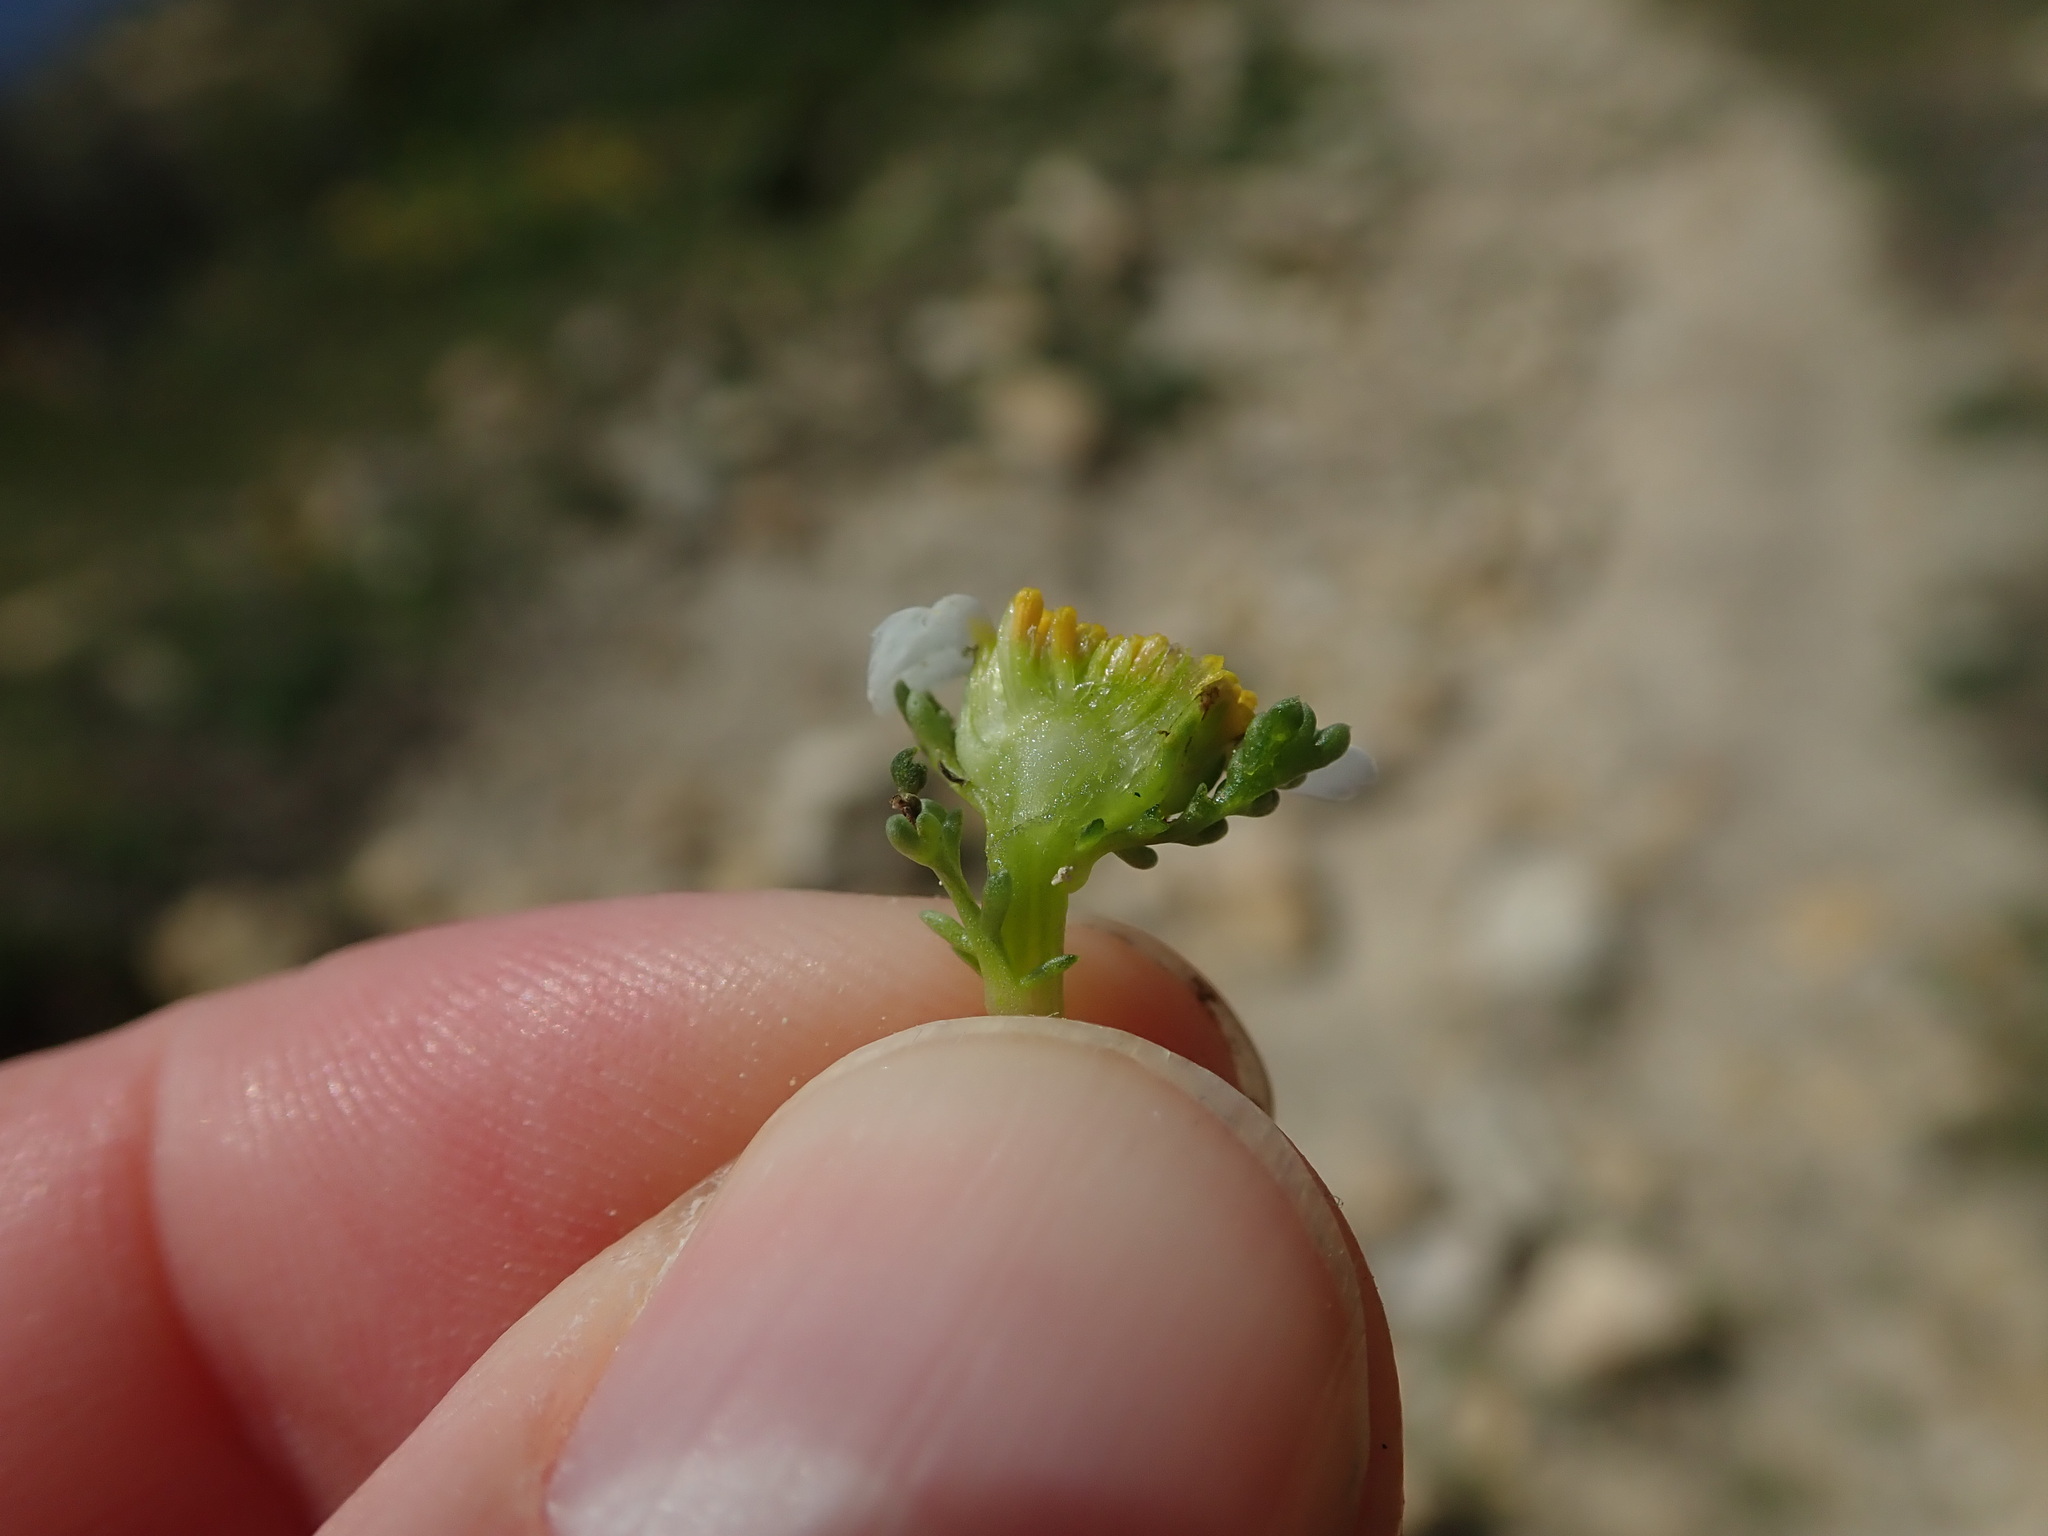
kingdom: Plantae
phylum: Tracheophyta
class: Magnoliopsida
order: Asterales
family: Asteraceae
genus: Anthemis
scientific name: Anthemis secundiramea
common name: Prostrate chamomile
